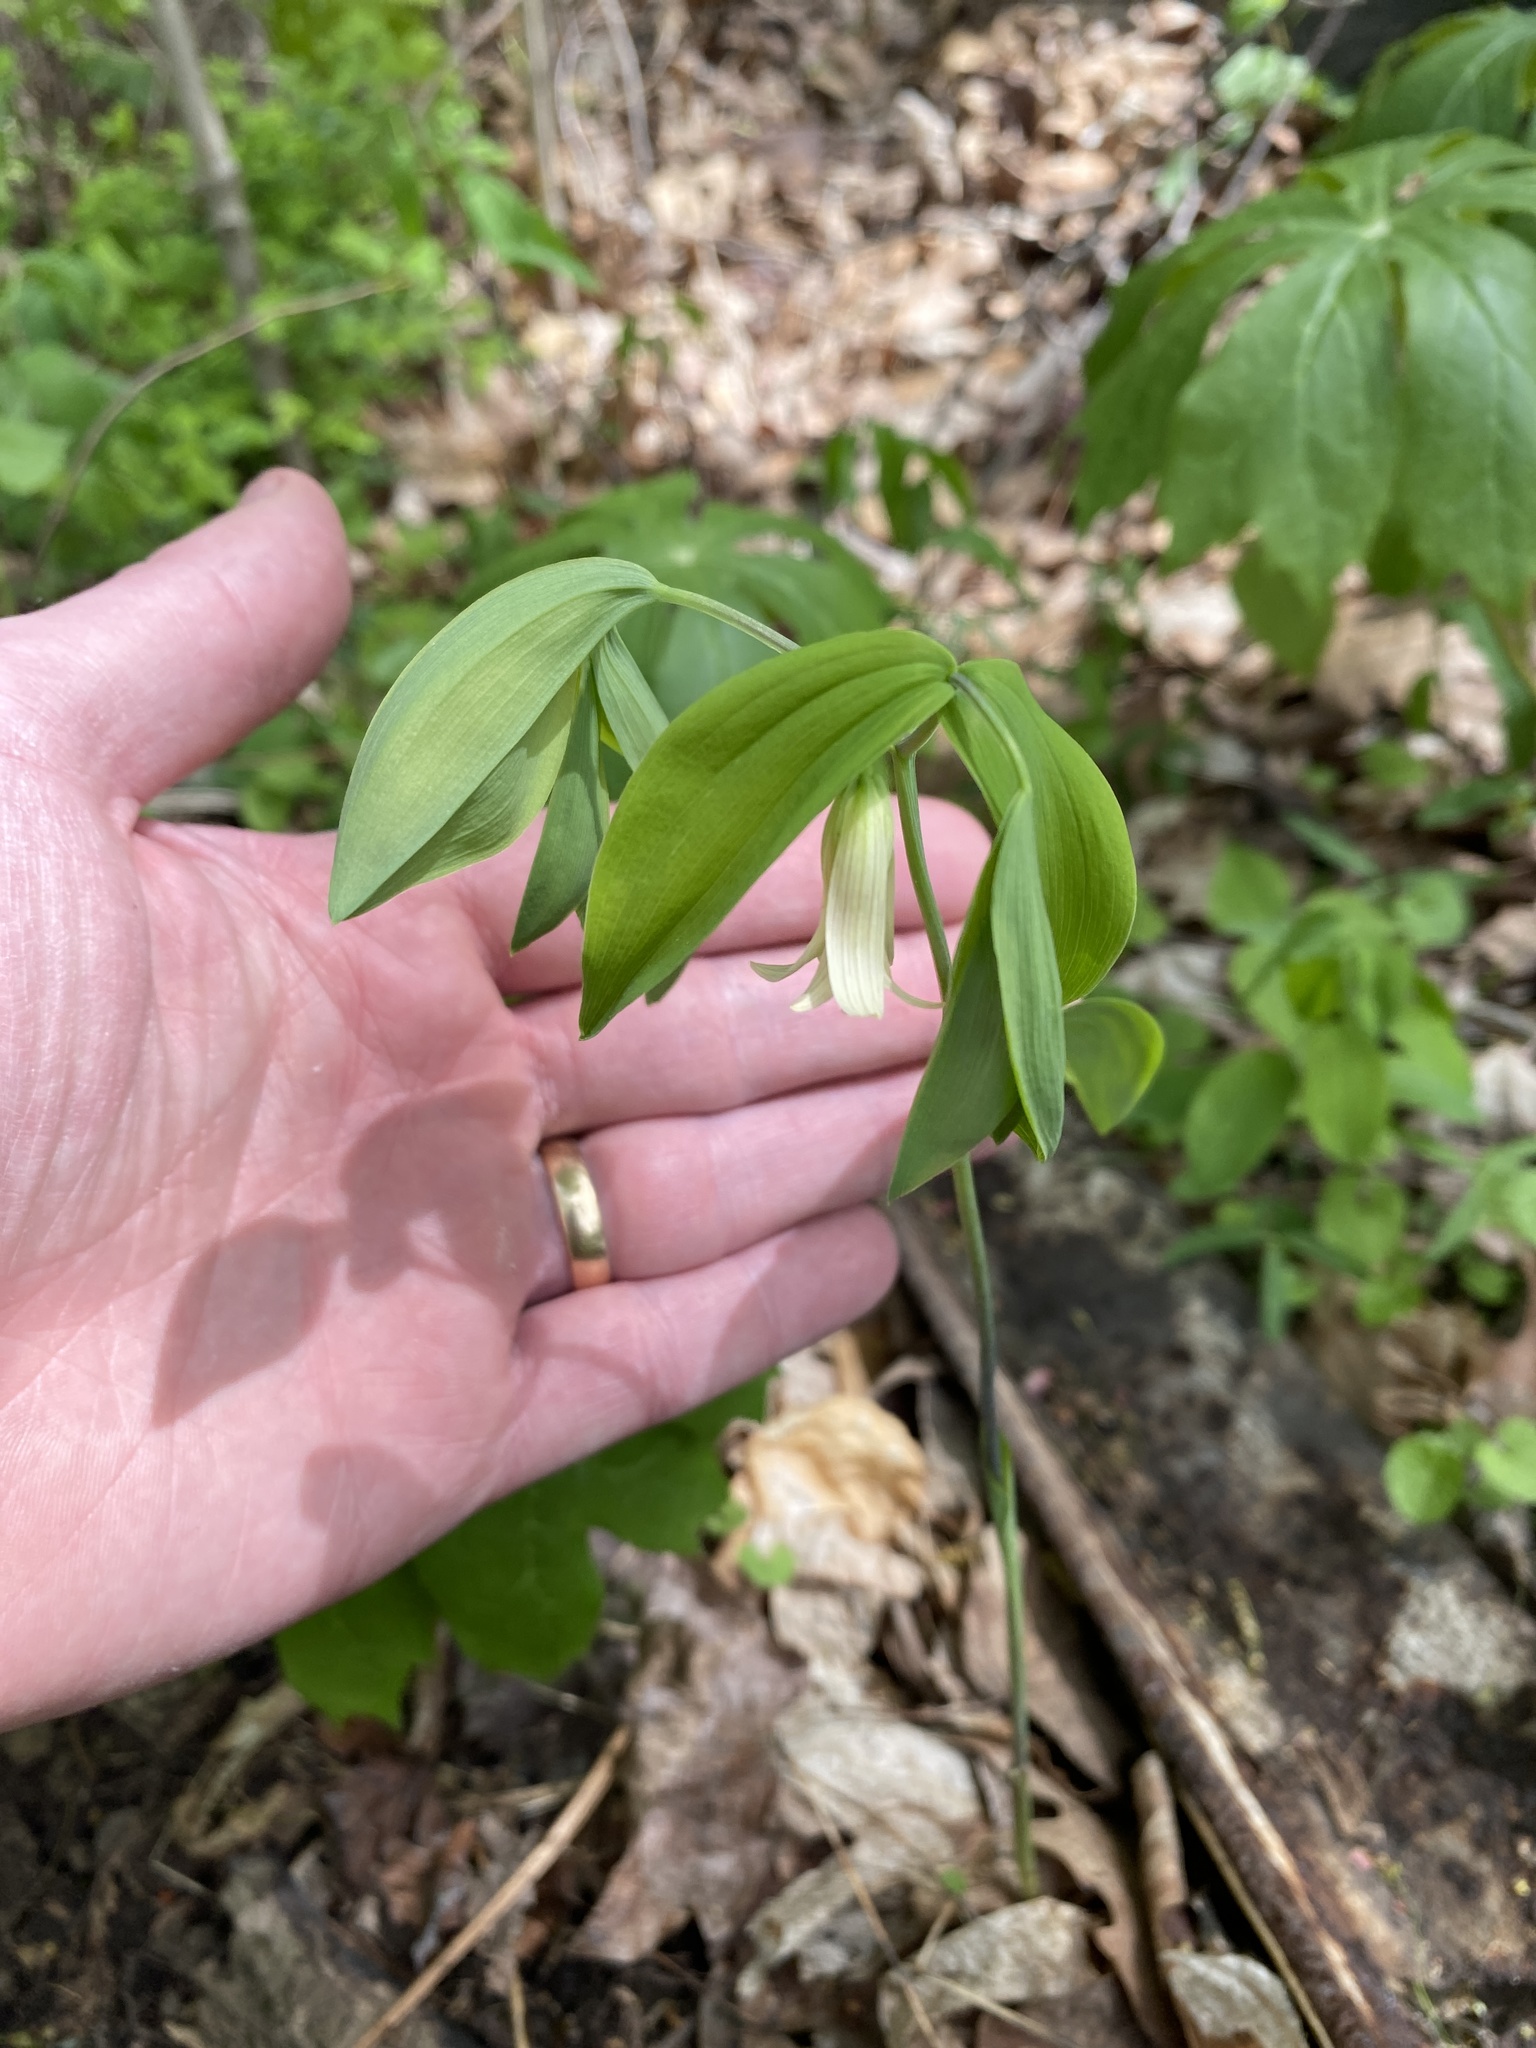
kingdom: Plantae
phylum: Tracheophyta
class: Liliopsida
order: Liliales
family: Colchicaceae
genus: Uvularia
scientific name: Uvularia sessilifolia
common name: Straw-lily
